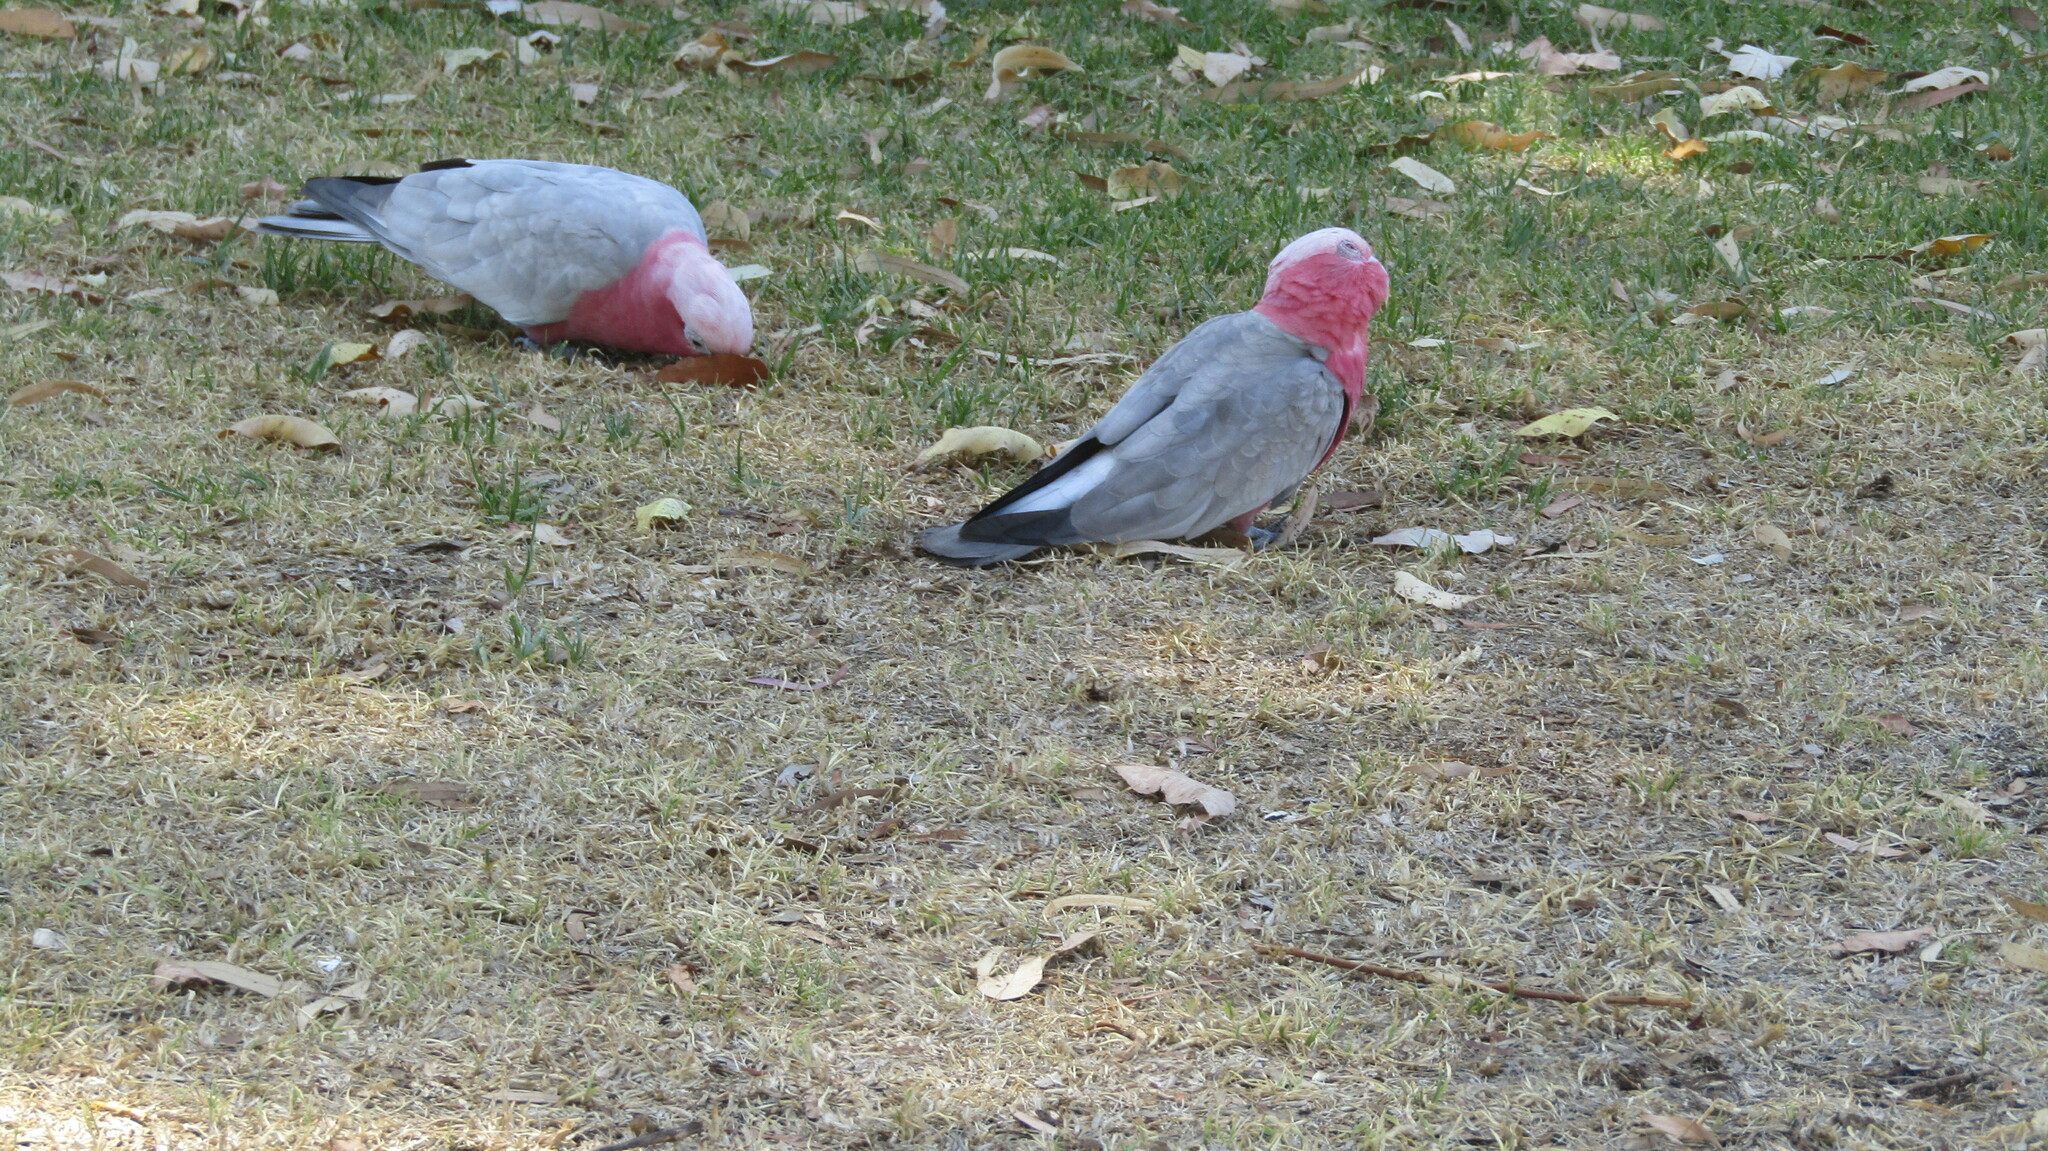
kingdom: Animalia
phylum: Chordata
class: Aves
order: Psittaciformes
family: Psittacidae
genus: Eolophus
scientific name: Eolophus roseicapilla
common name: Galah
